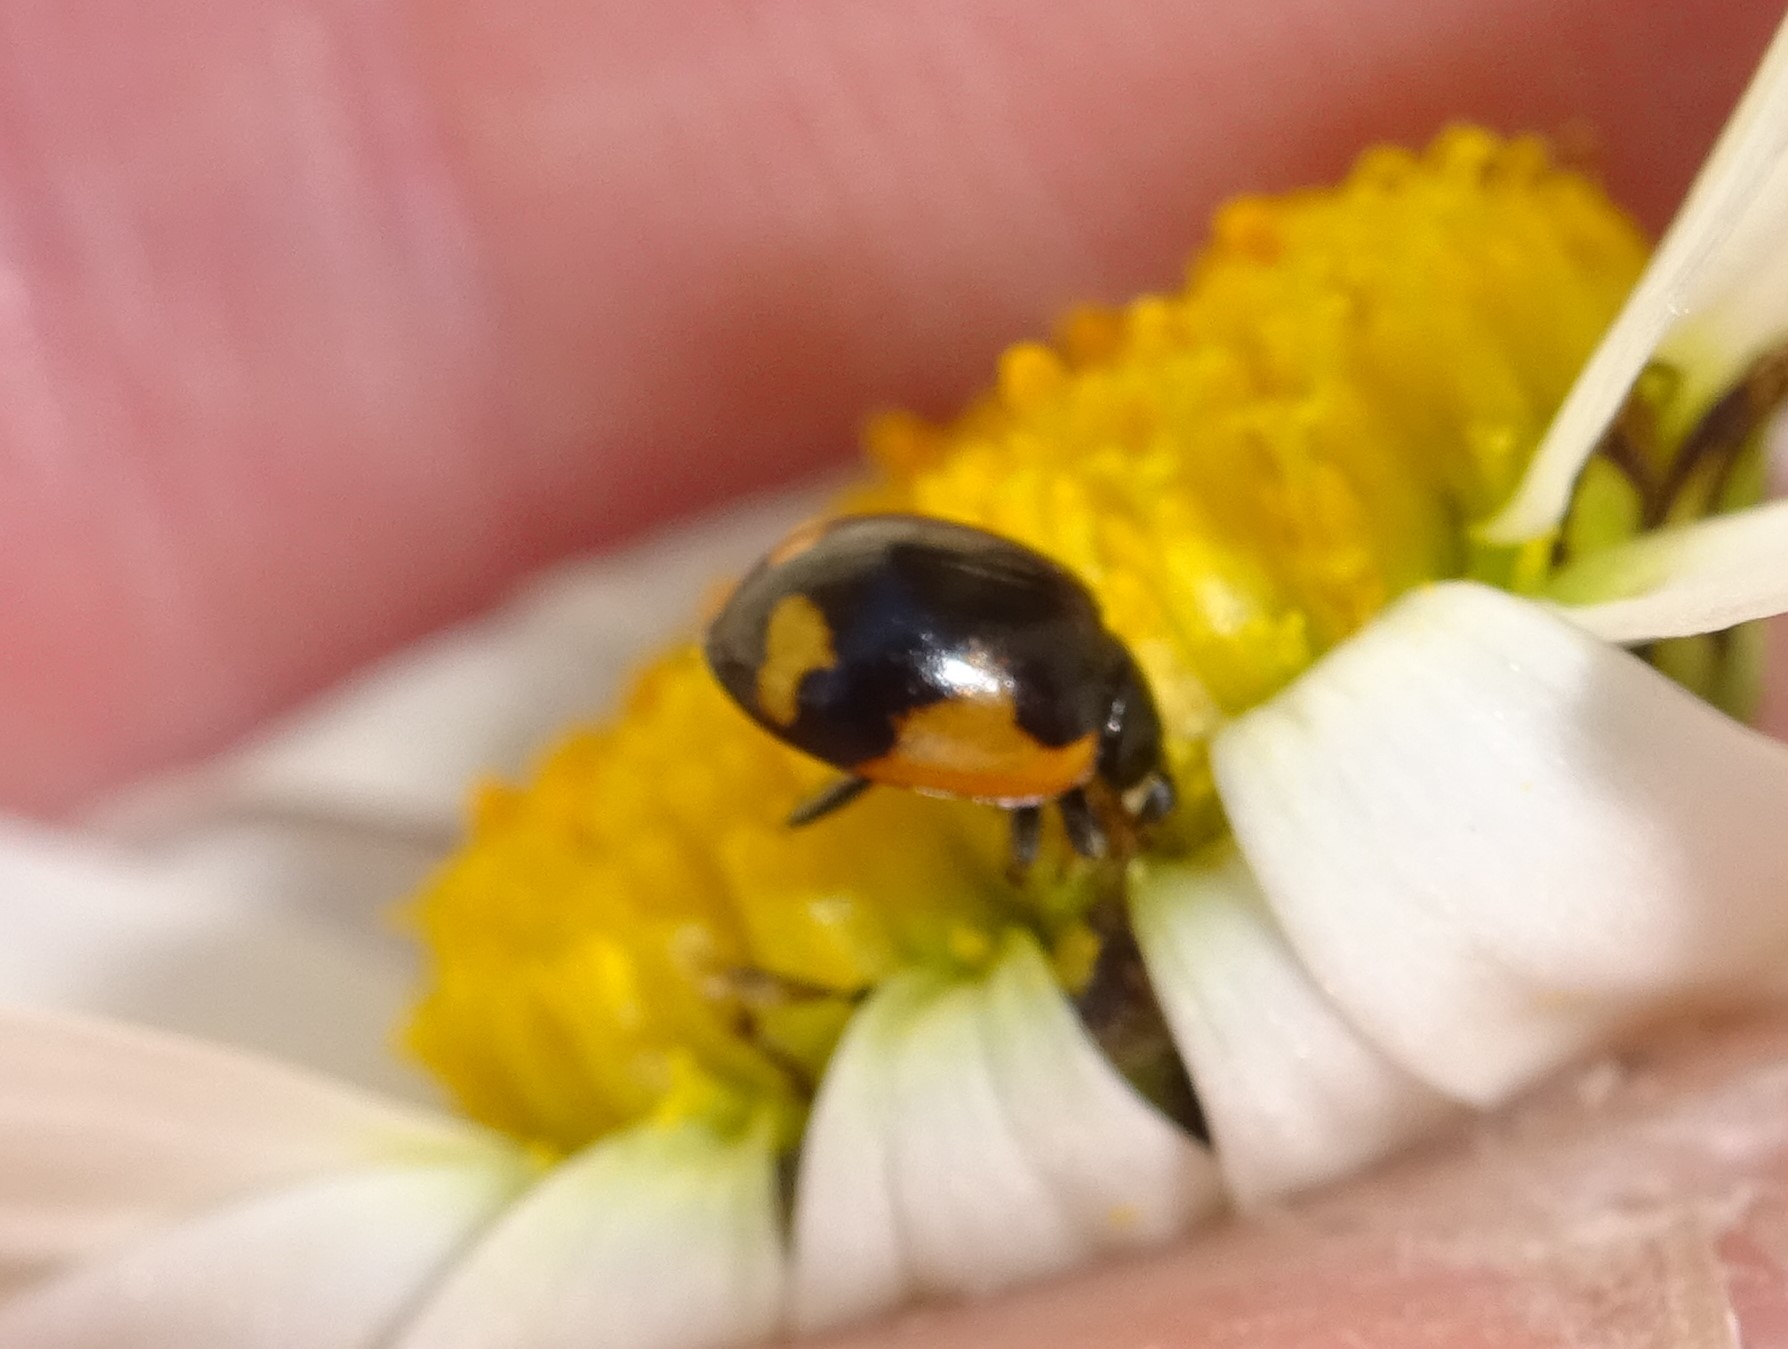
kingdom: Animalia
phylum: Arthropoda
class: Insecta
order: Coleoptera
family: Coccinellidae
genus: Ceratomegilla
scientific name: Ceratomegilla alpina
